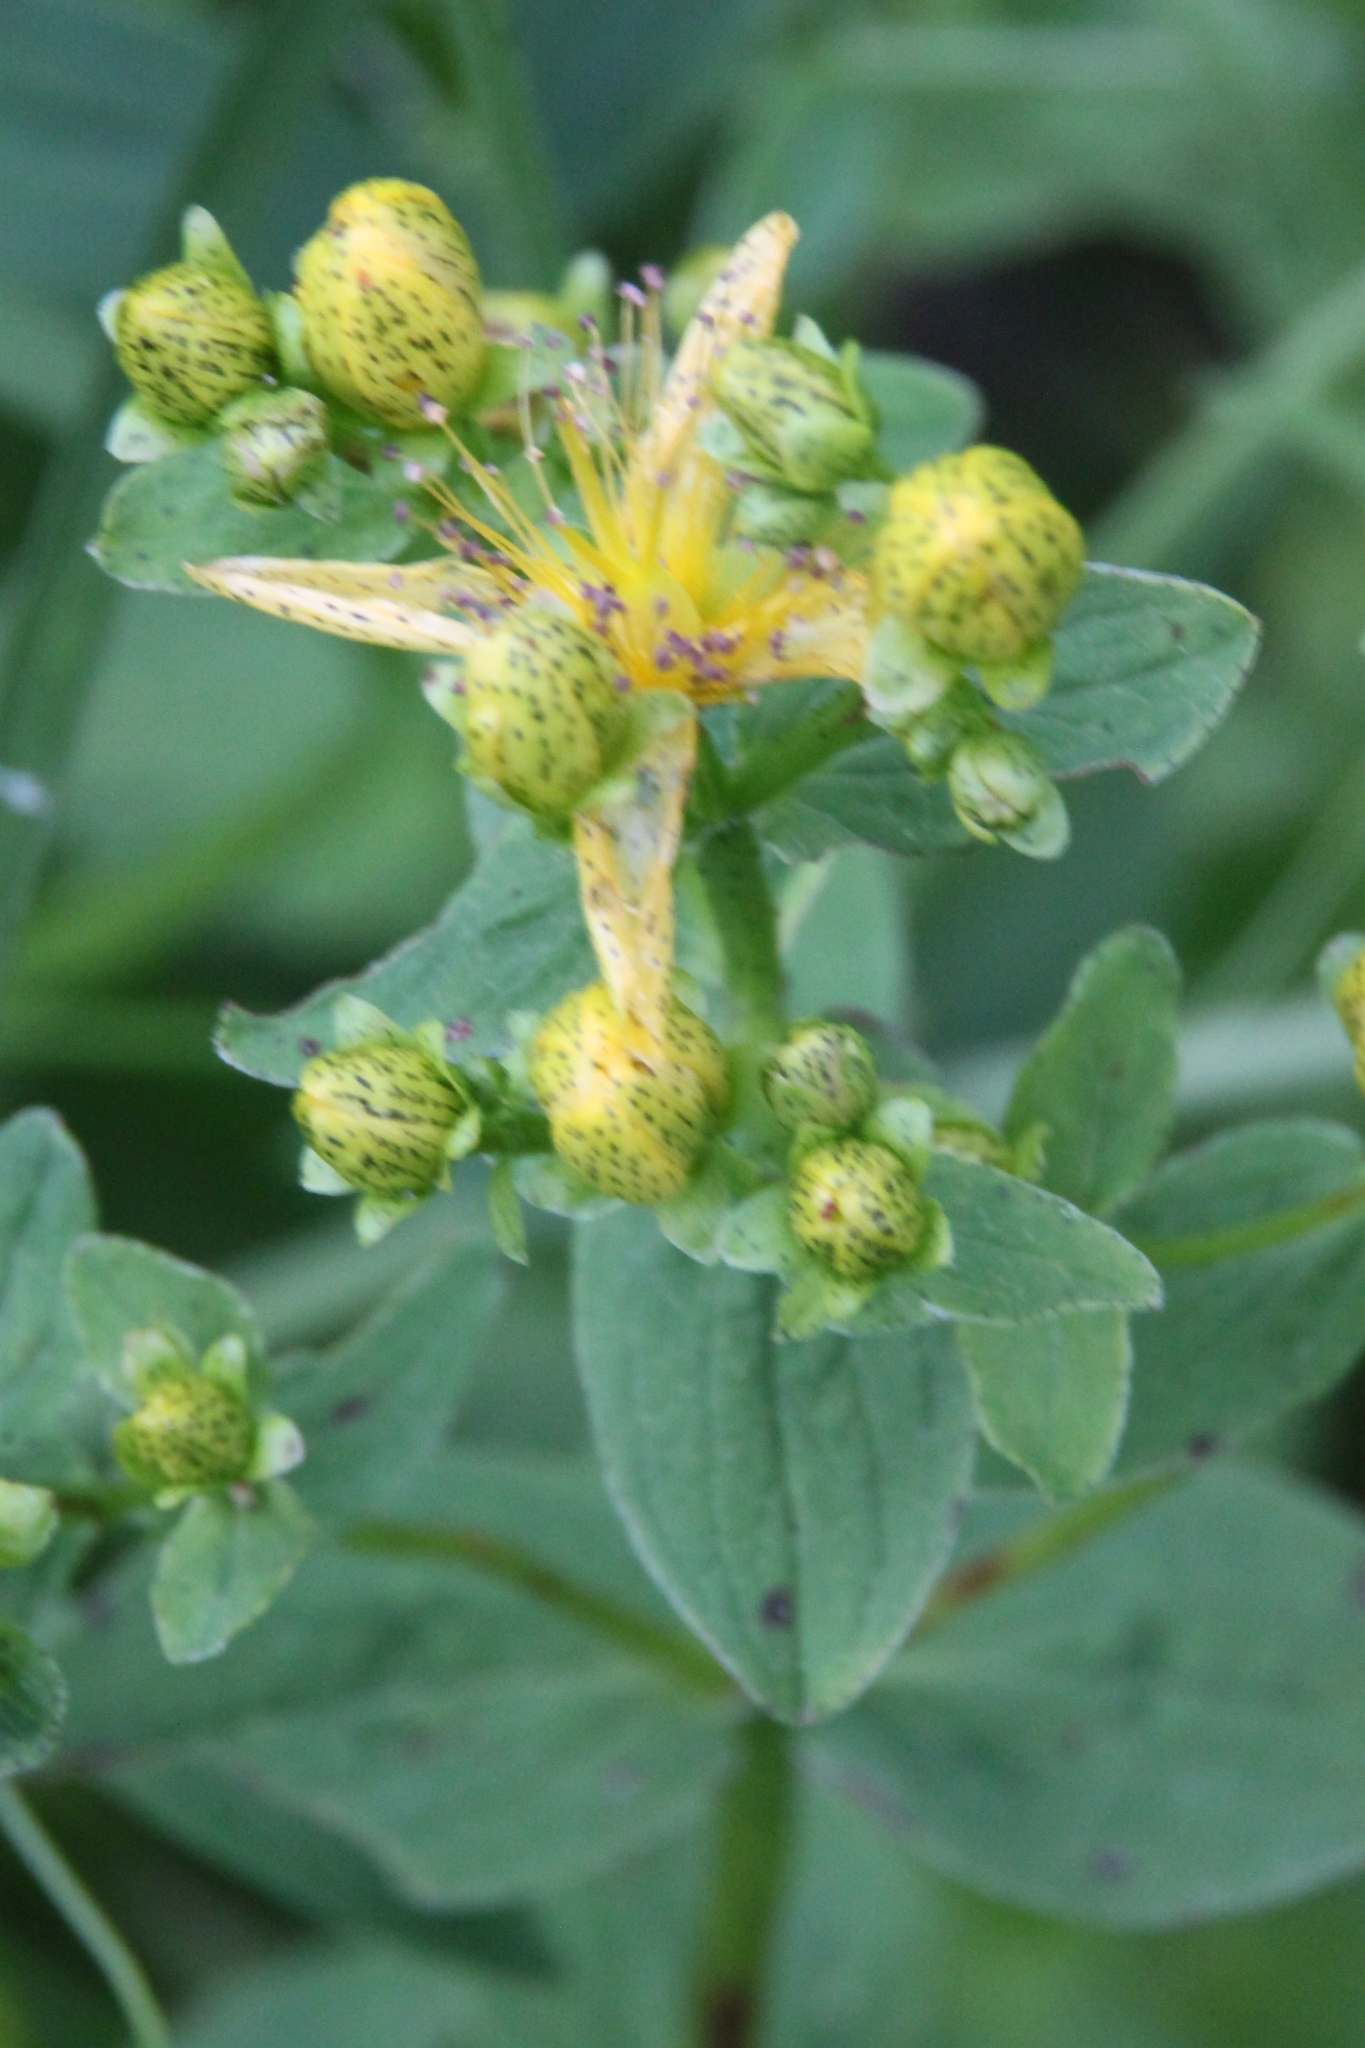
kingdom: Plantae
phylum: Tracheophyta
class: Magnoliopsida
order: Malpighiales
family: Hypericaceae
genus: Hypericum
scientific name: Hypericum maculatum
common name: Imperforate st. john's-wort
